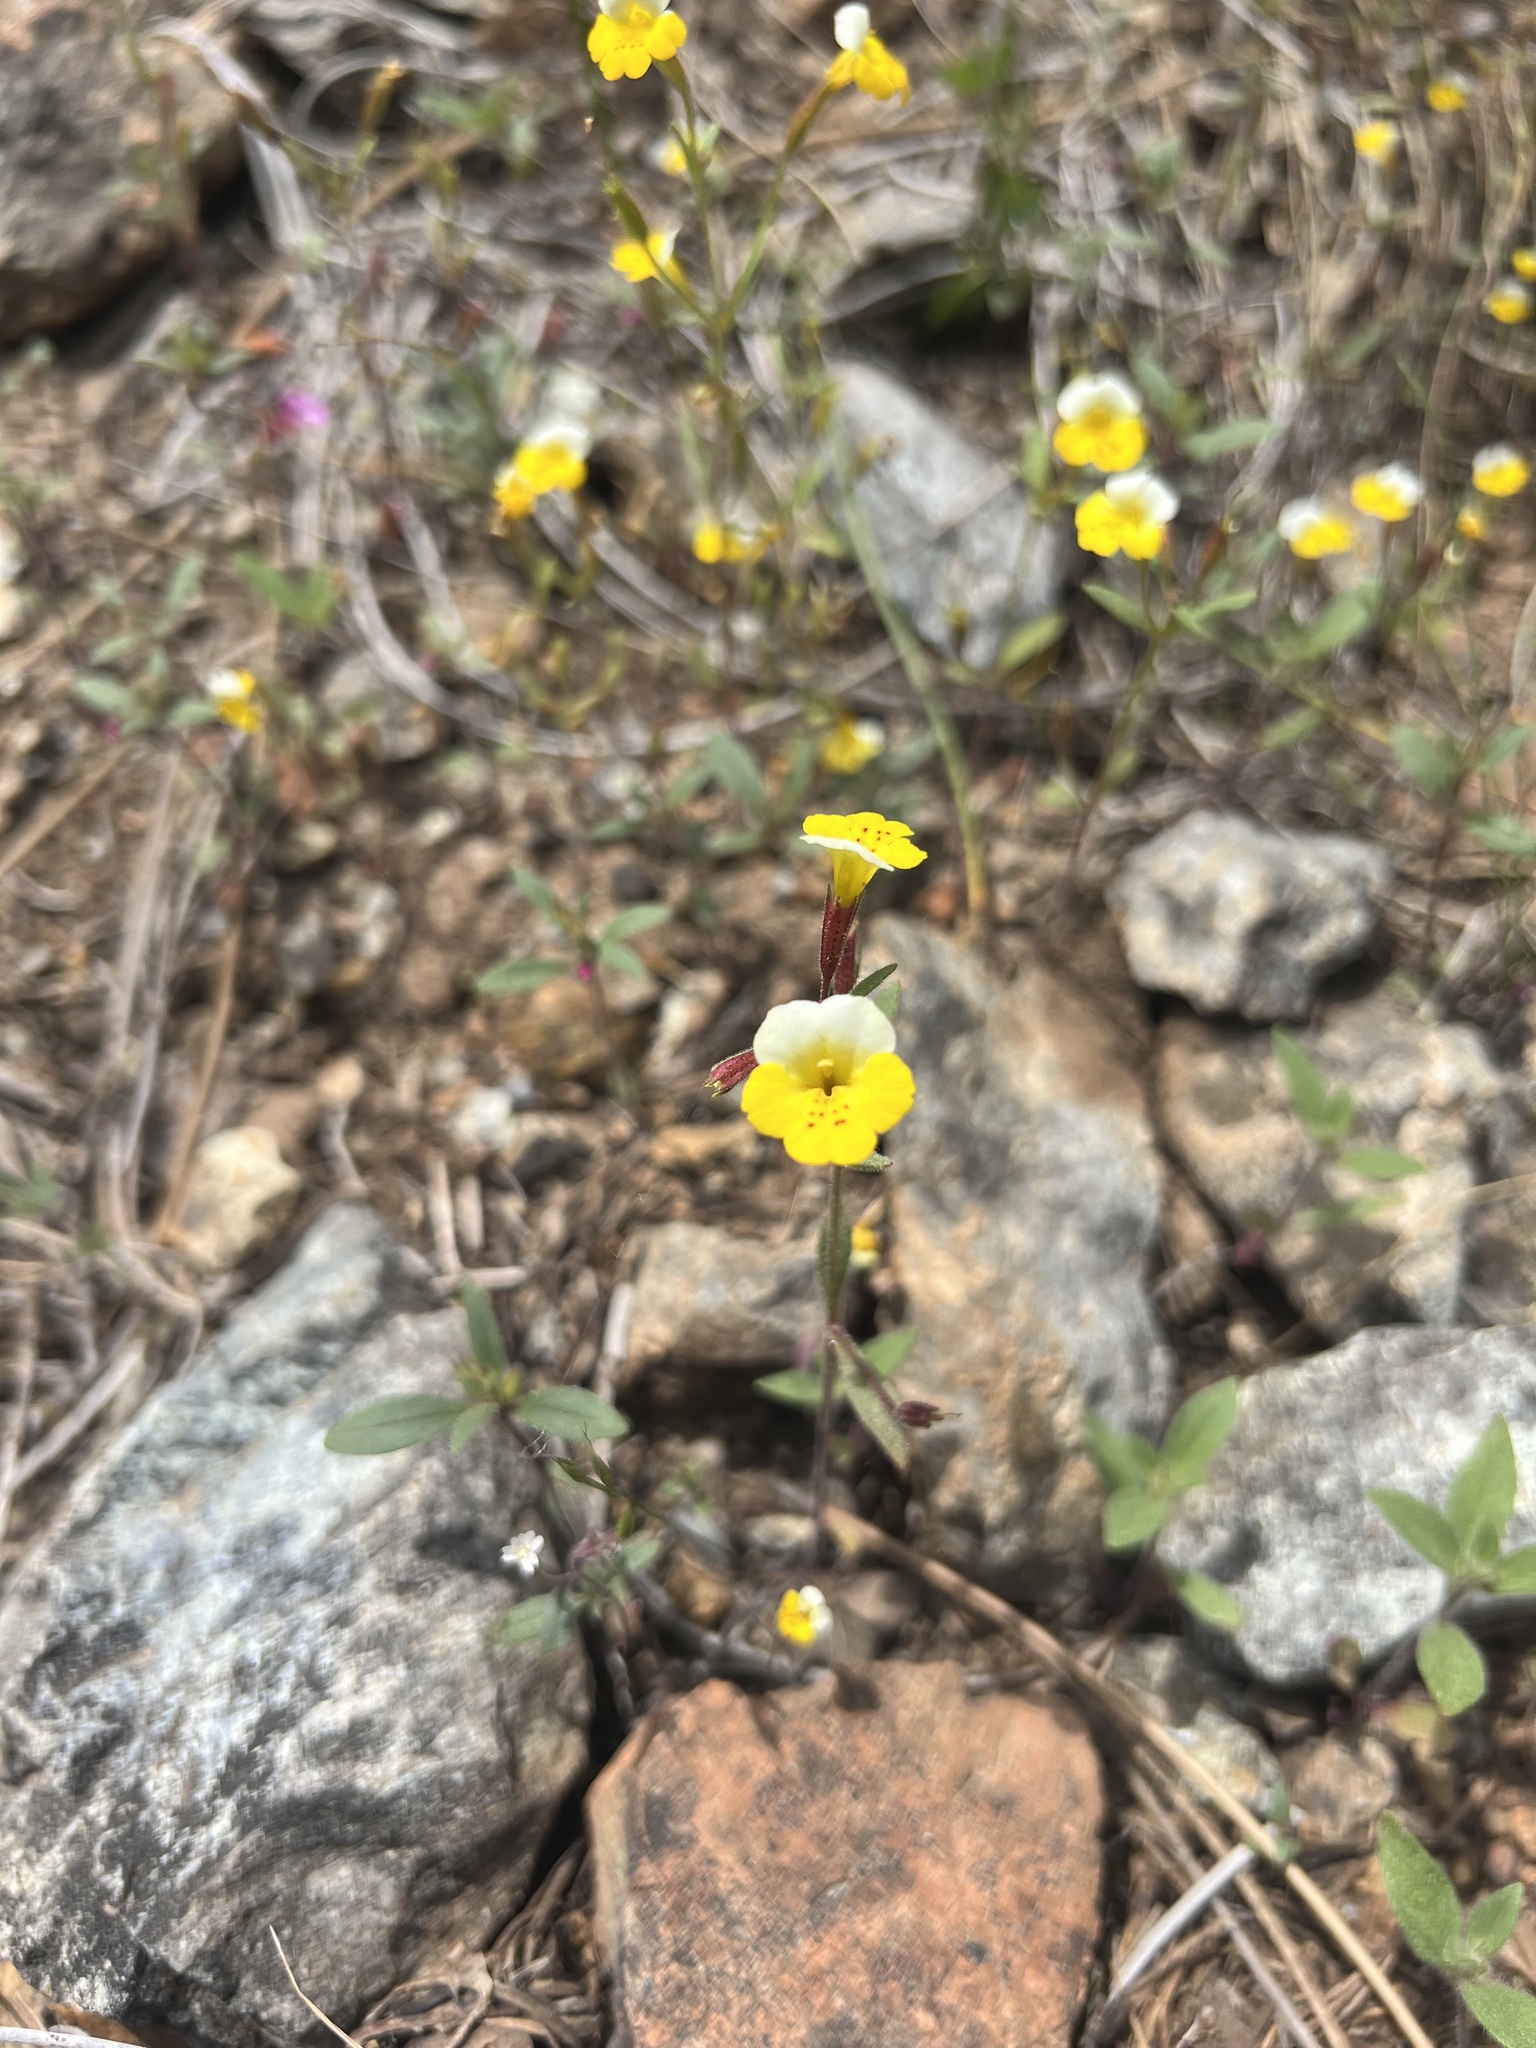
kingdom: Plantae
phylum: Tracheophyta
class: Magnoliopsida
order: Lamiales
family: Phrymaceae
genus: Erythranthe
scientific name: Erythranthe bicolor
